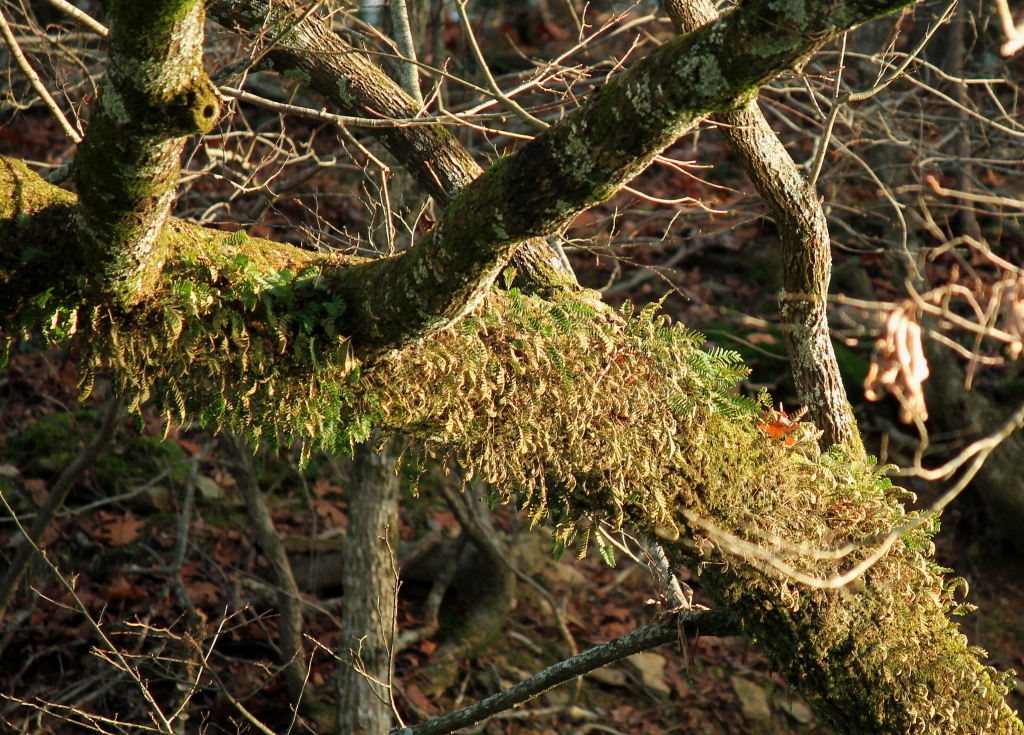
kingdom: Plantae
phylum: Tracheophyta
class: Polypodiopsida
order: Polypodiales
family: Polypodiaceae
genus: Pleopeltis
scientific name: Pleopeltis michauxiana
